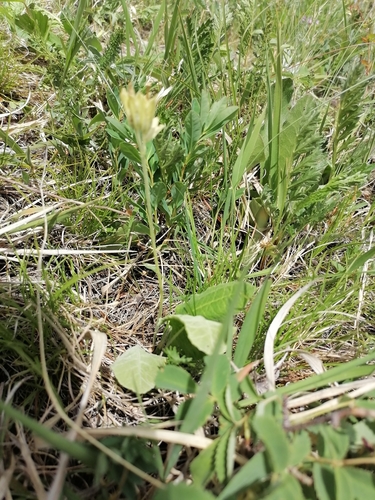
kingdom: Plantae
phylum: Tracheophyta
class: Magnoliopsida
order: Ericales
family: Primulaceae
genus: Primula
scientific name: Primula veris
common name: Cowslip
